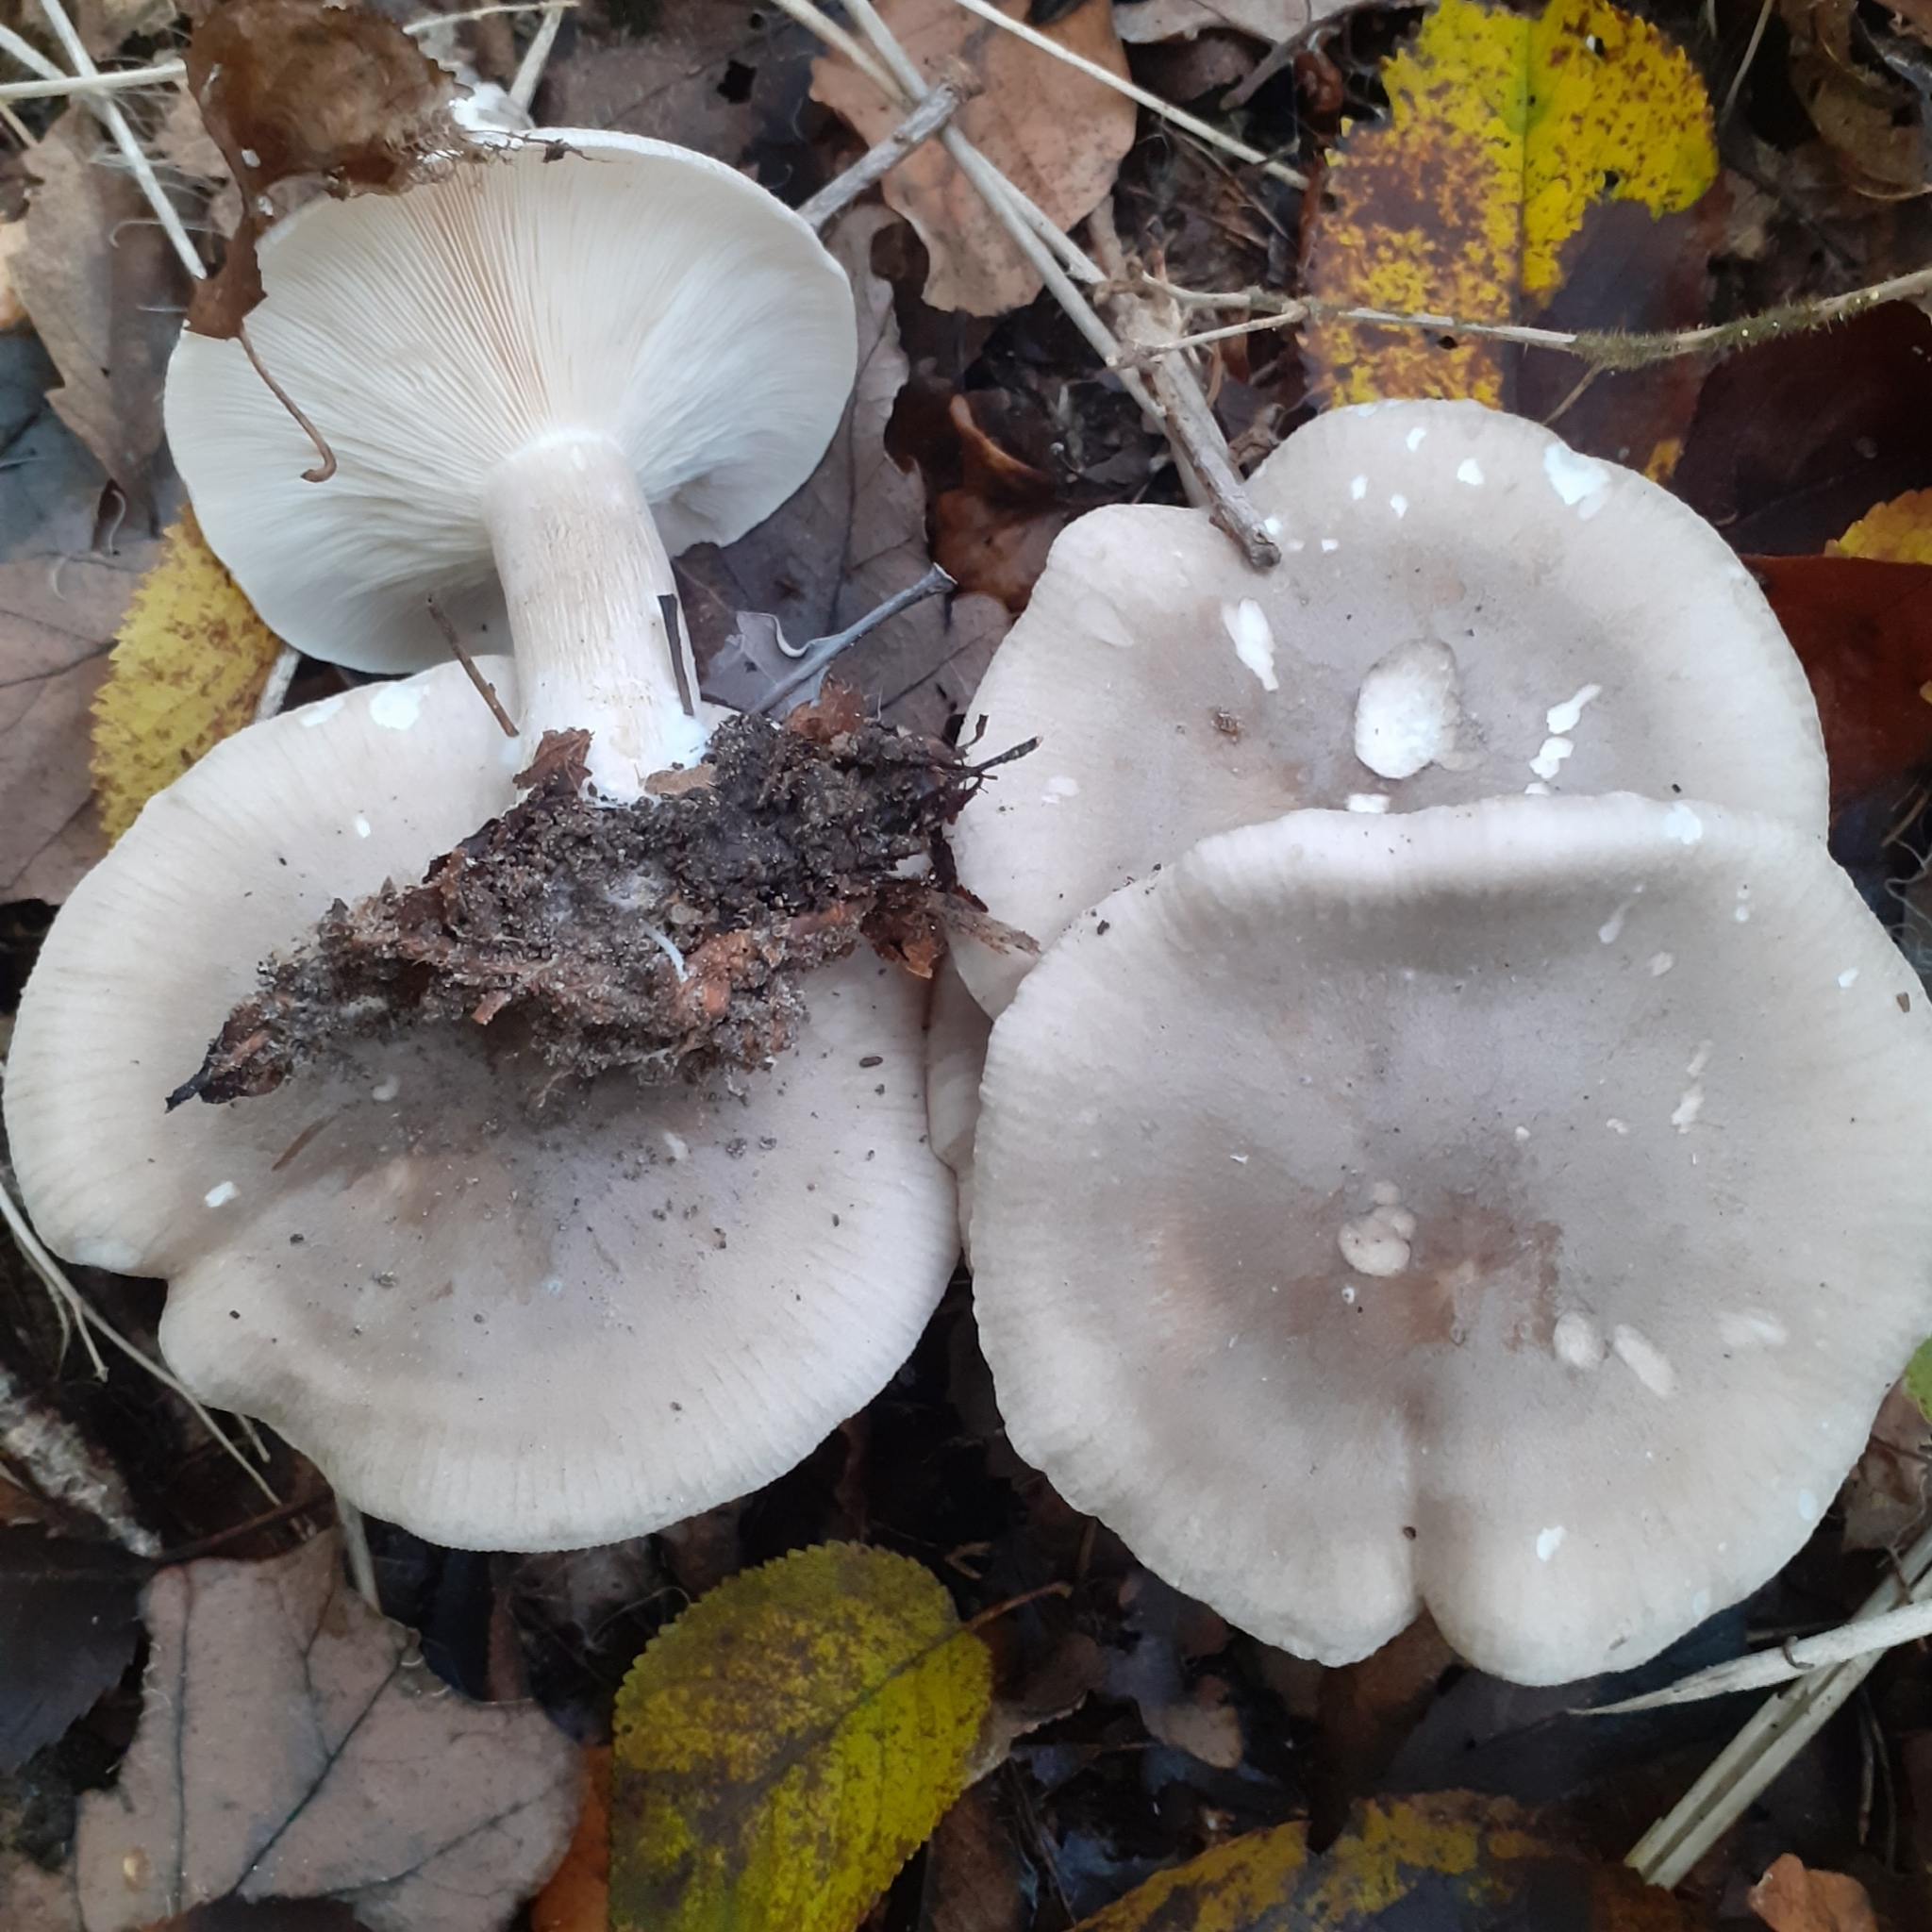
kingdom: Fungi
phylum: Basidiomycota
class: Agaricomycetes
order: Agaricales
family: Tricholomataceae
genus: Clitocybe
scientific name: Clitocybe nebularis
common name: Clouded agaric
